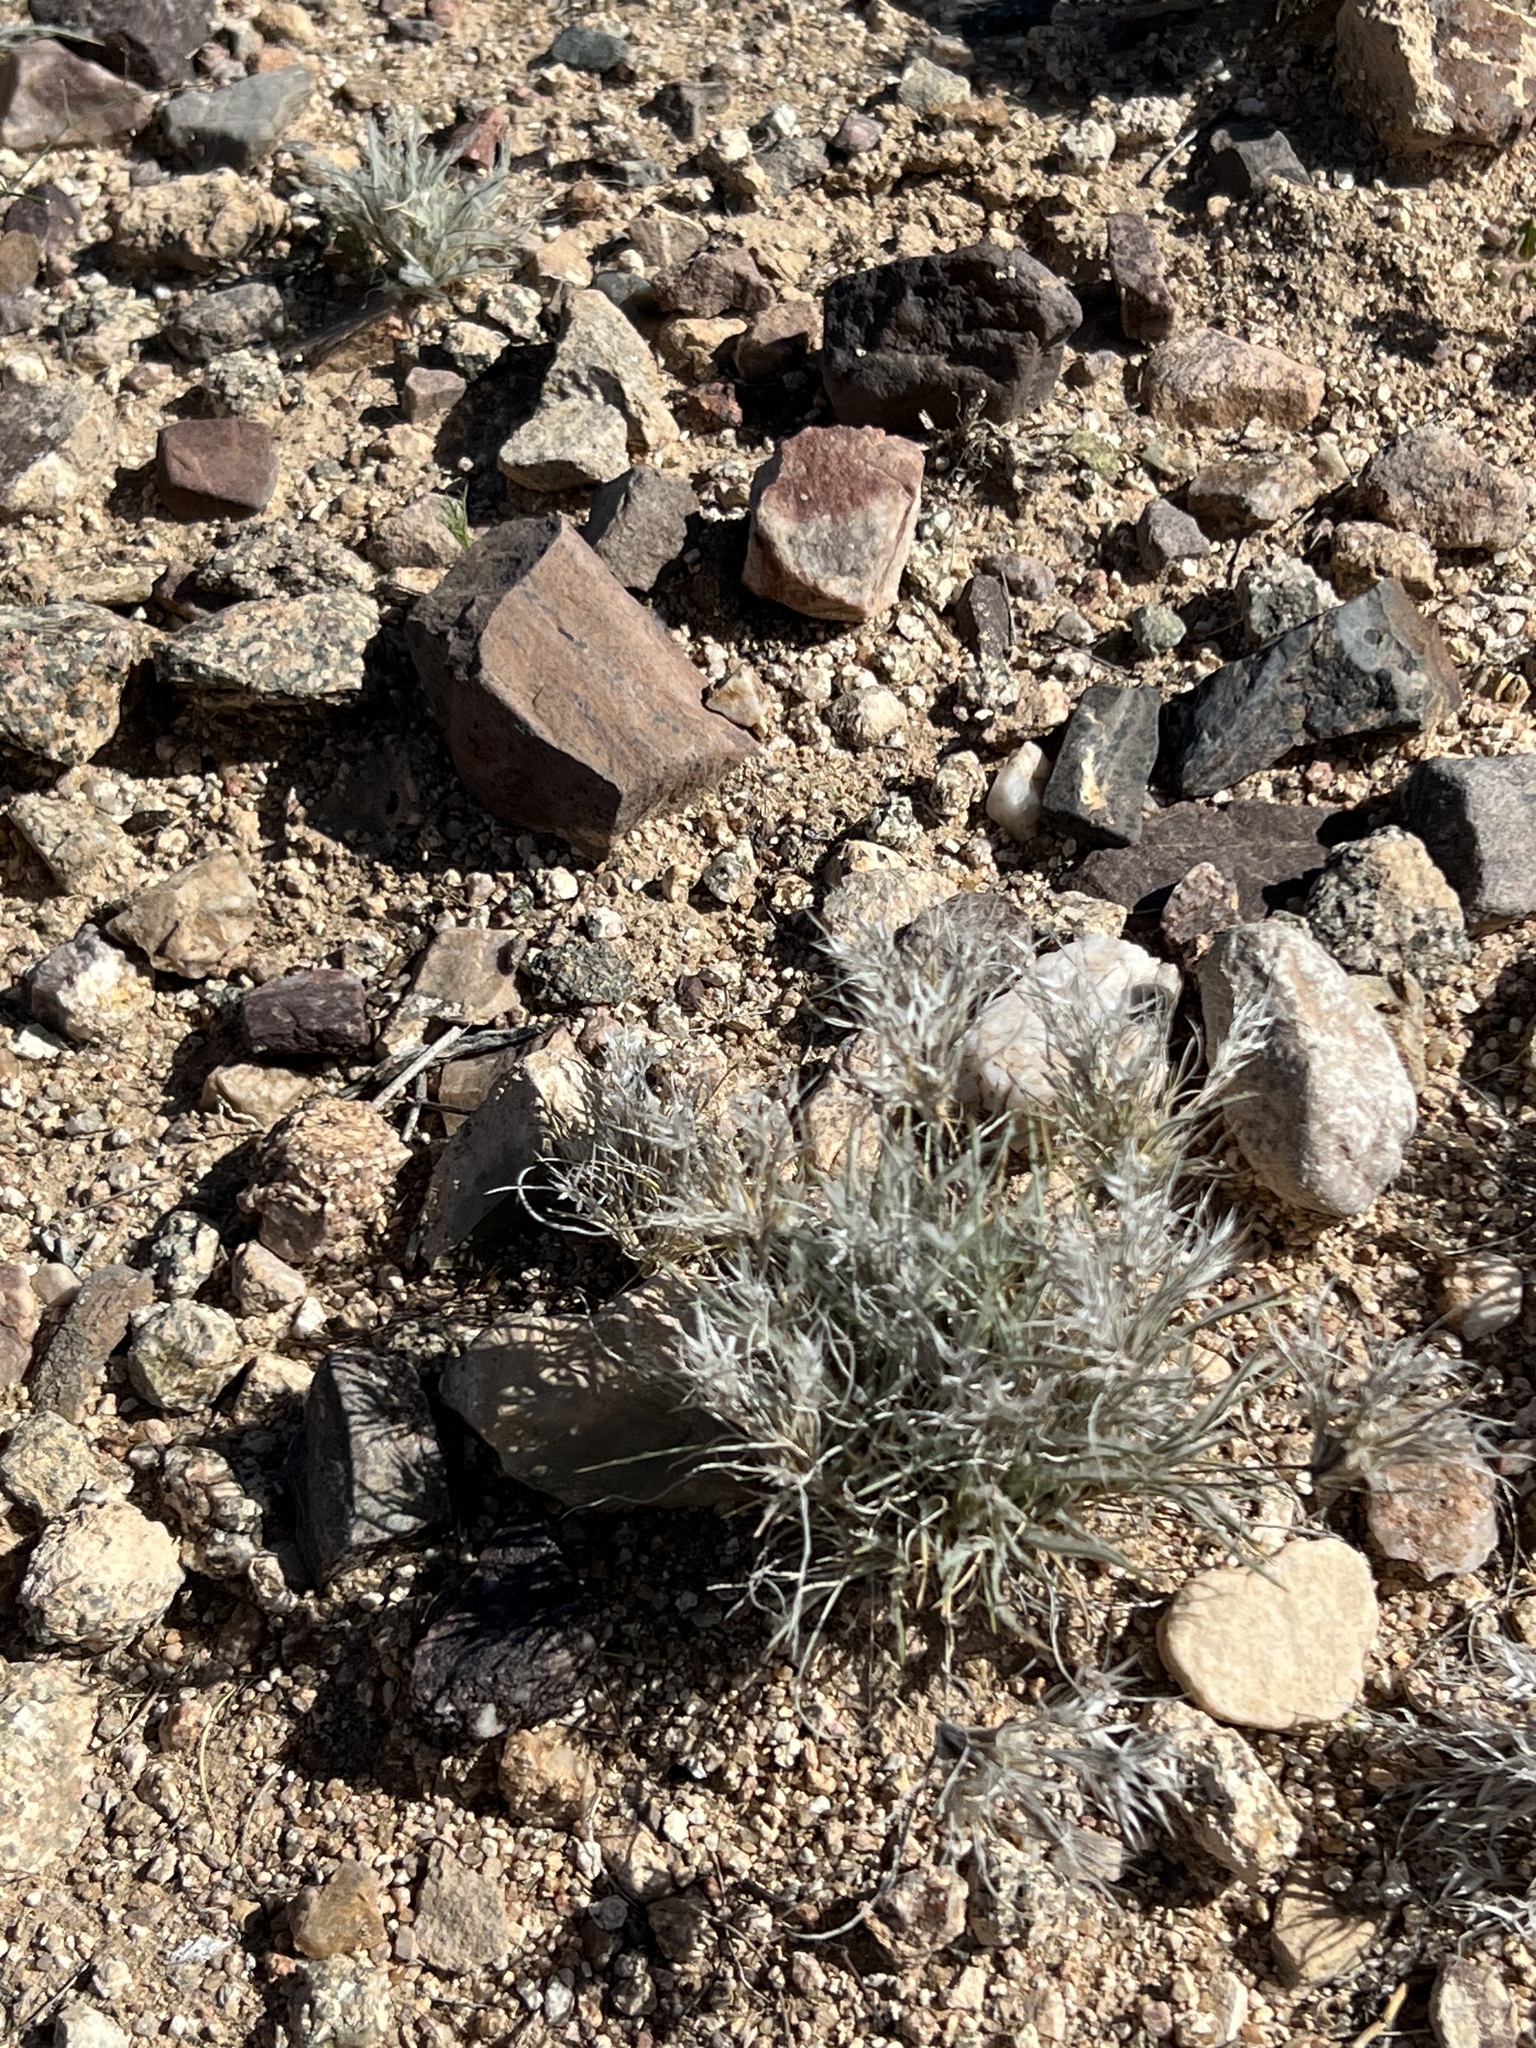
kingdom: Plantae
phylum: Tracheophyta
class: Liliopsida
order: Poales
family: Poaceae
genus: Dasyochloa
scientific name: Dasyochloa pulchella
